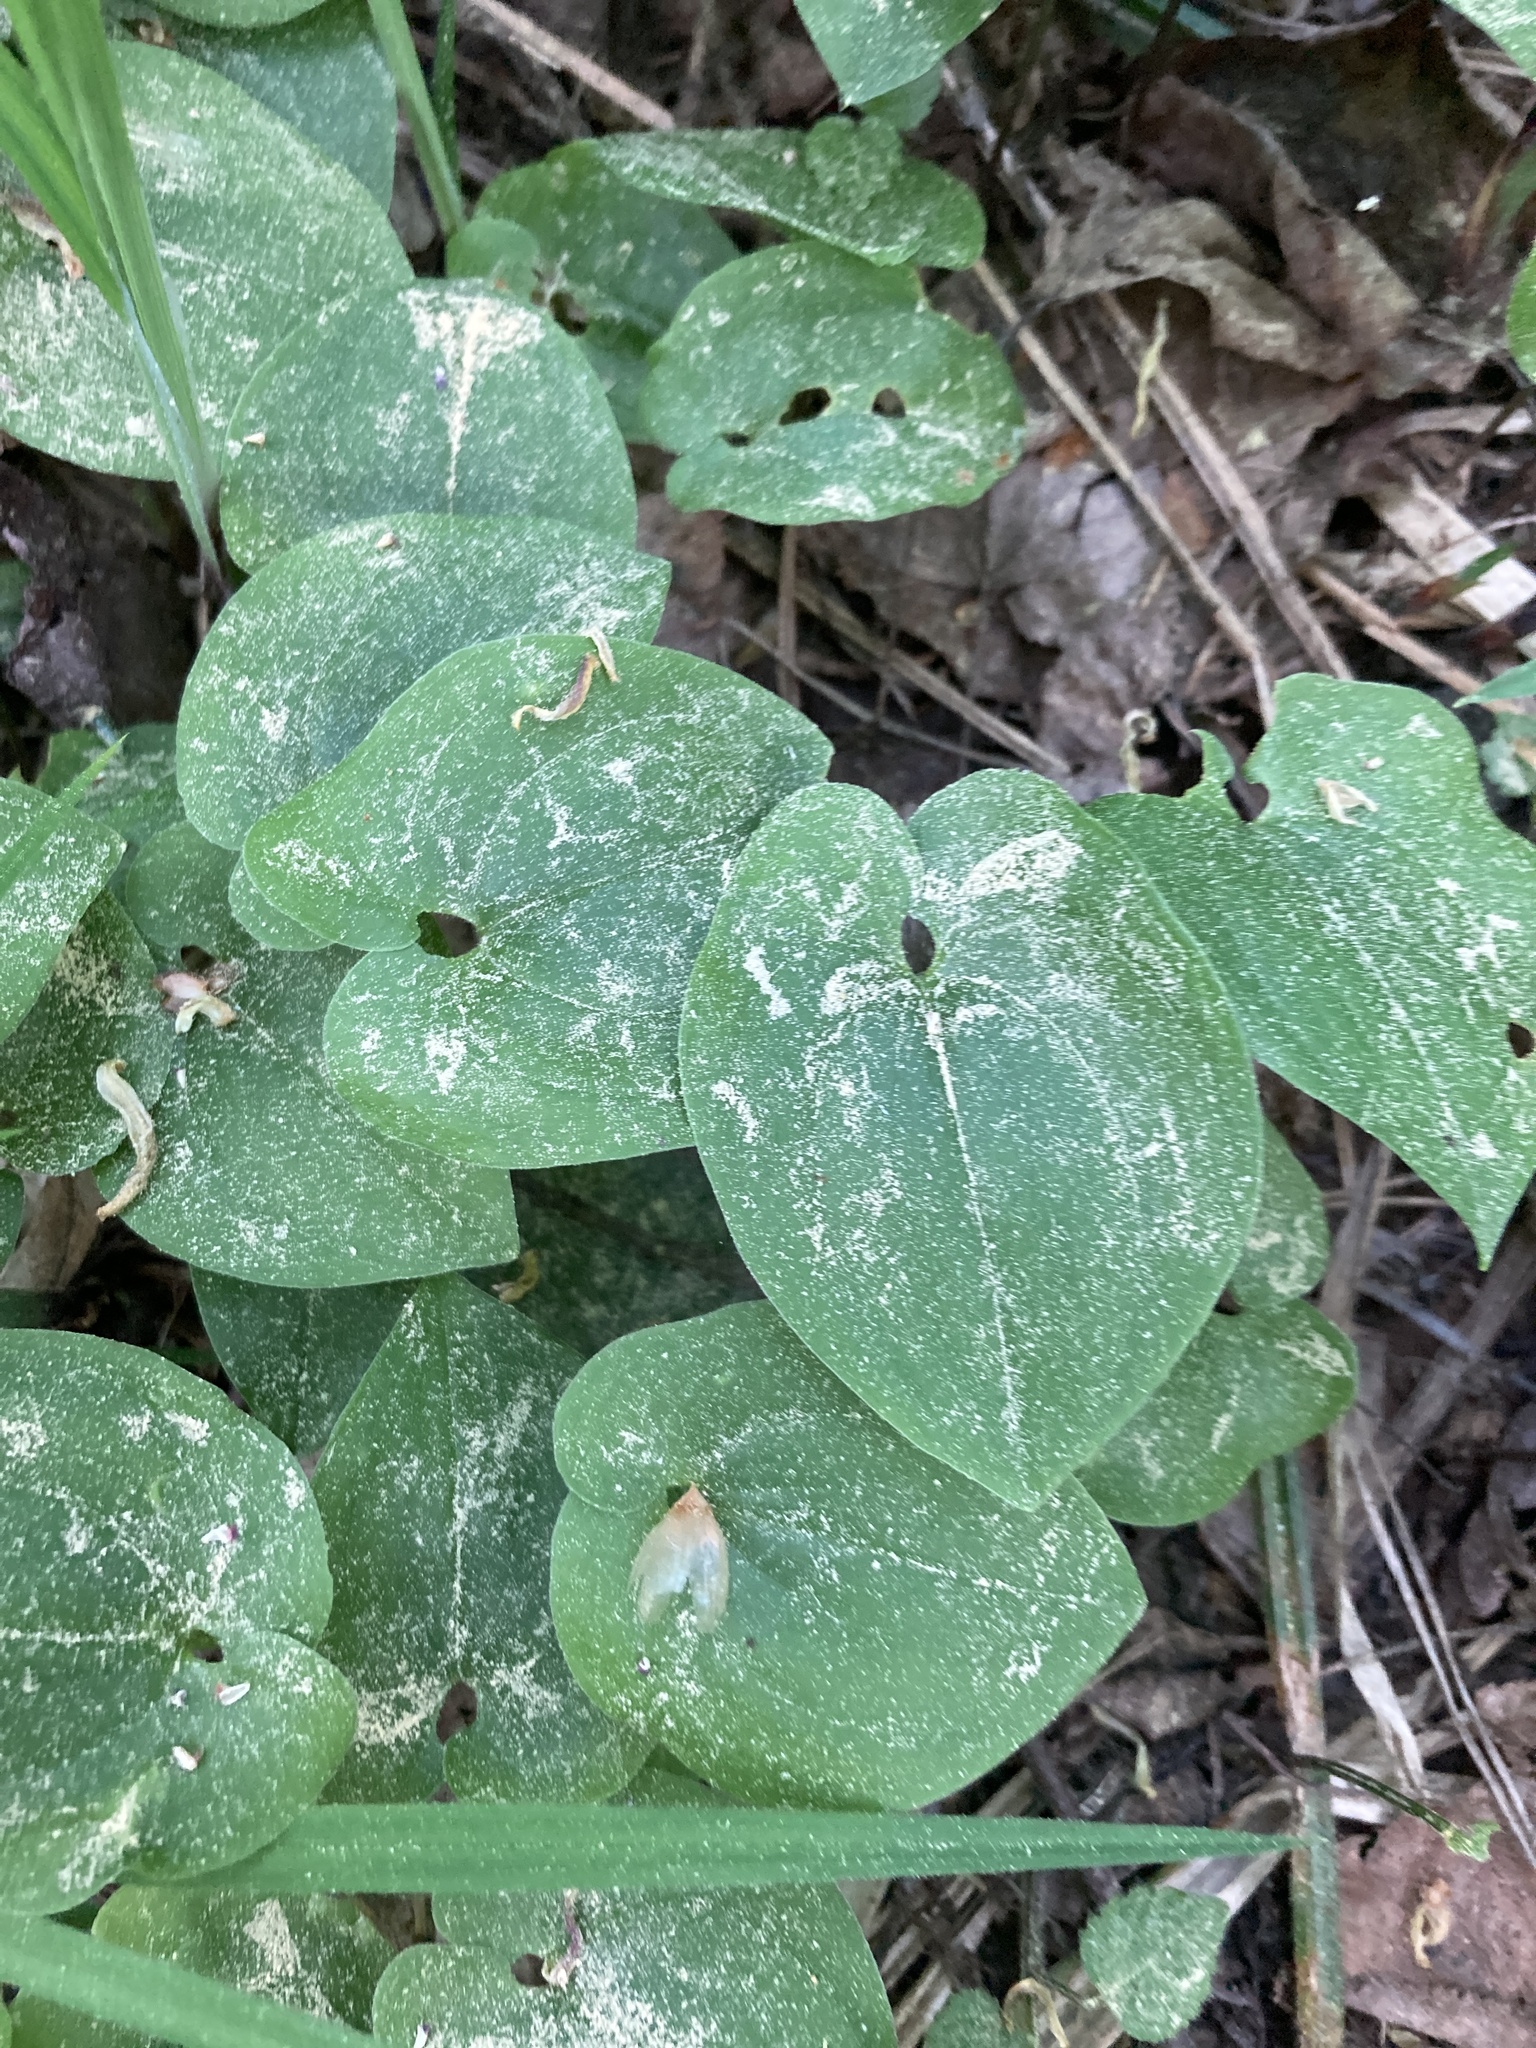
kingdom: Plantae
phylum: Tracheophyta
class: Liliopsida
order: Asparagales
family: Asparagaceae
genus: Maianthemum
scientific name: Maianthemum bifolium
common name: May lily
